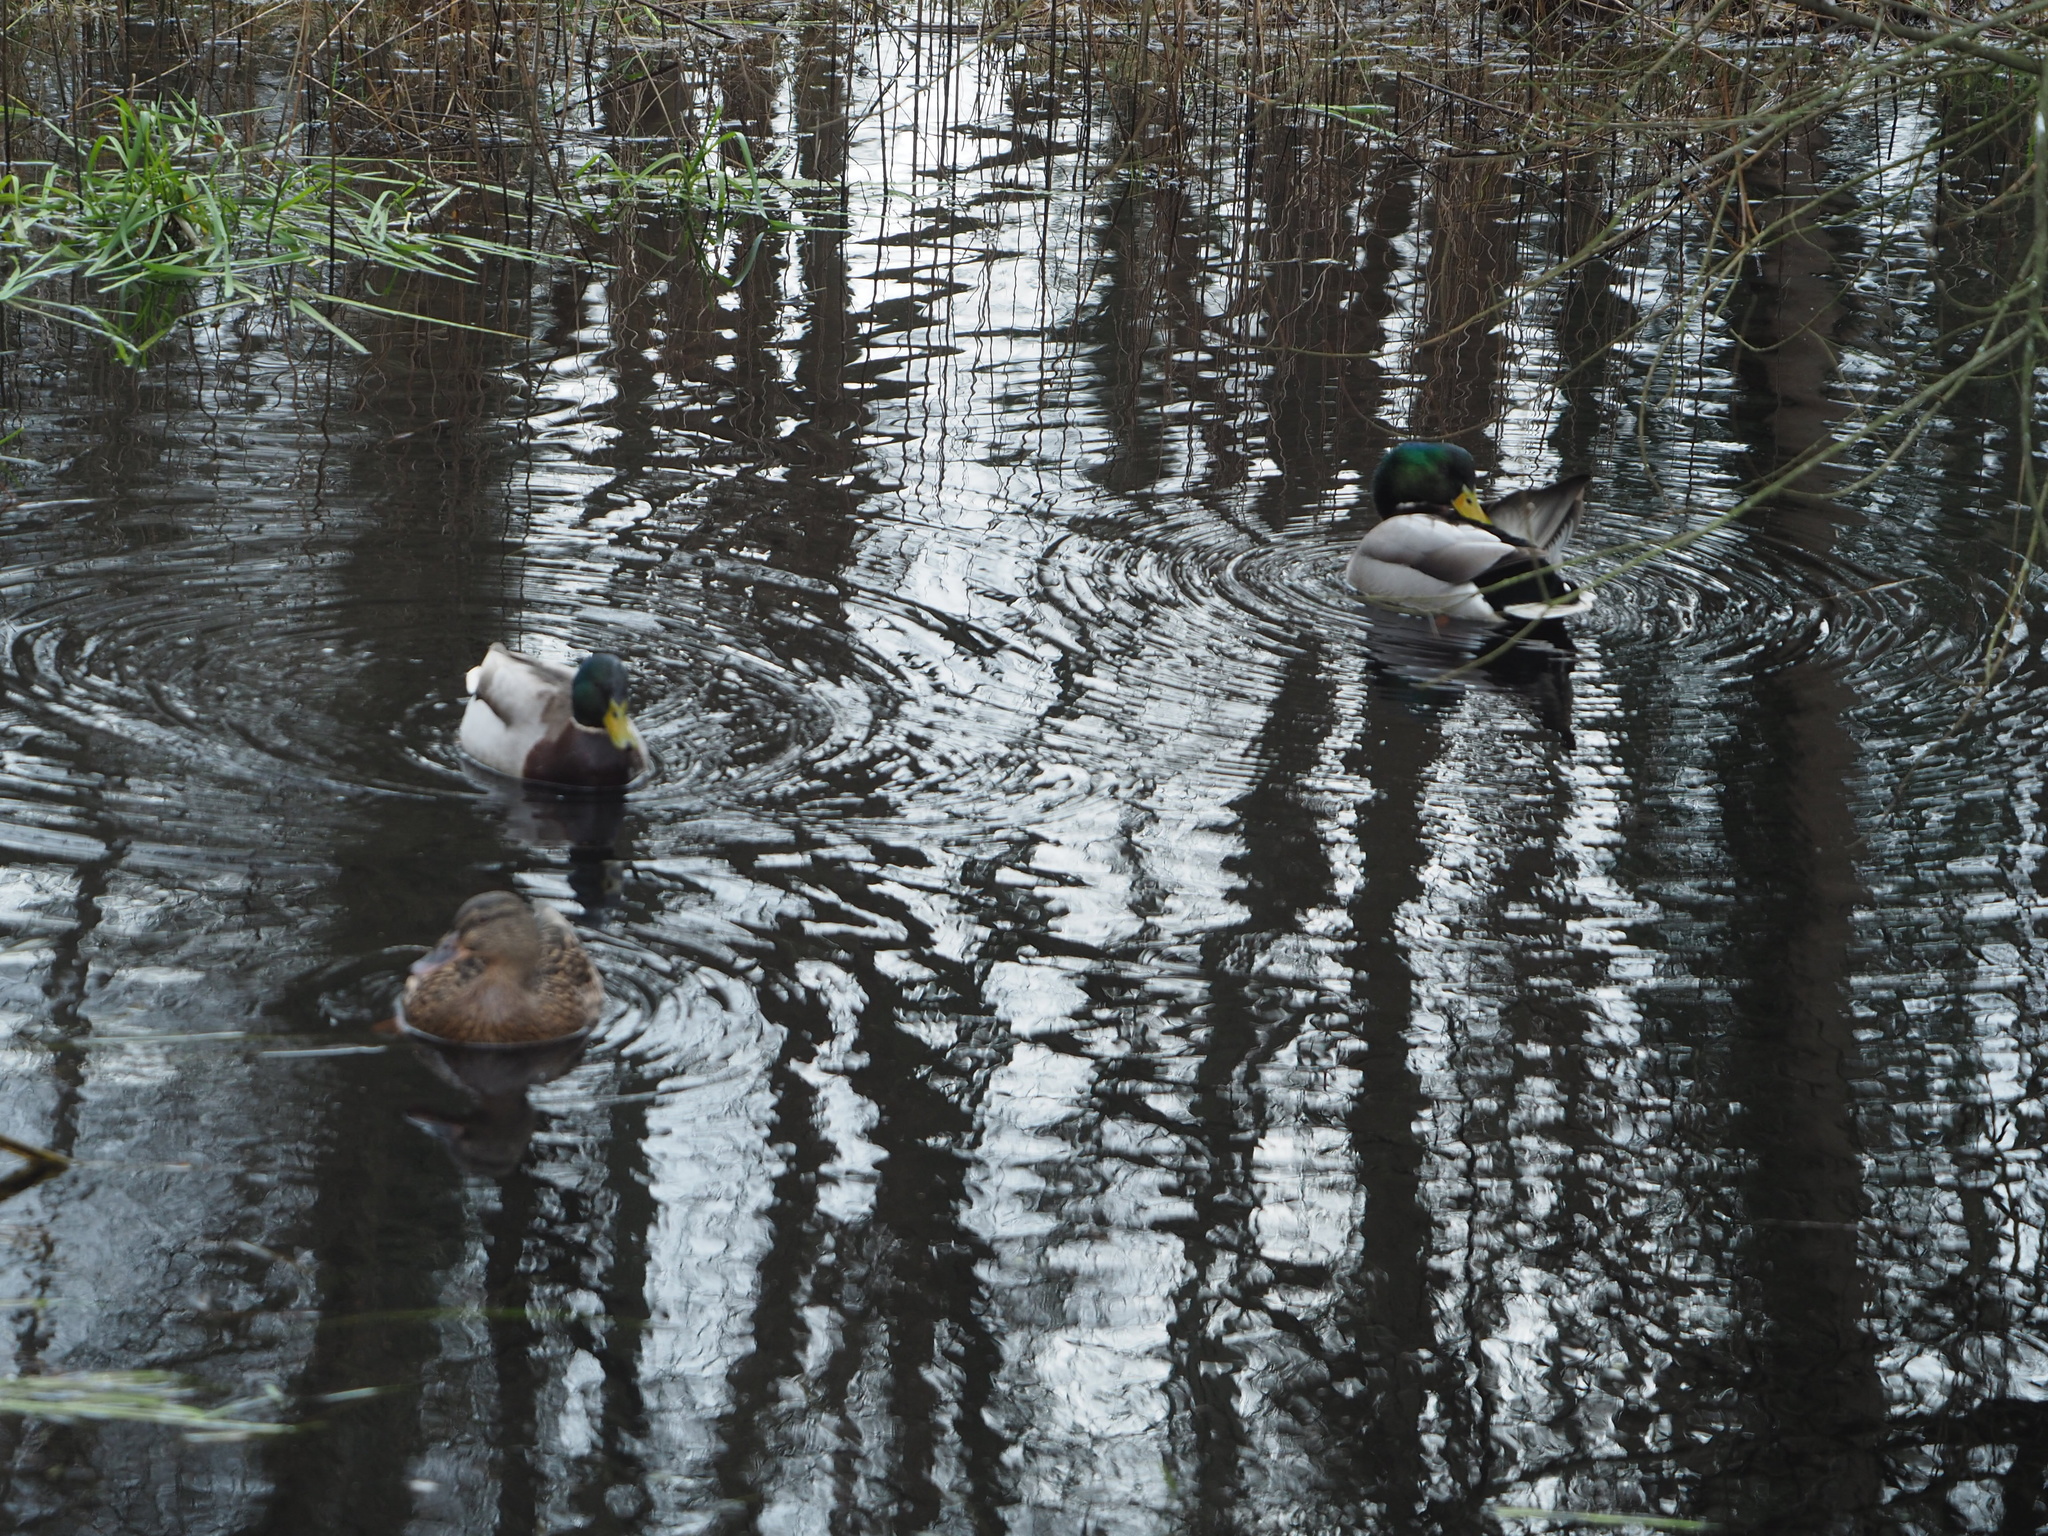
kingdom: Animalia
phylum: Chordata
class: Aves
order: Anseriformes
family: Anatidae
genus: Anas
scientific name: Anas platyrhynchos
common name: Mallard
